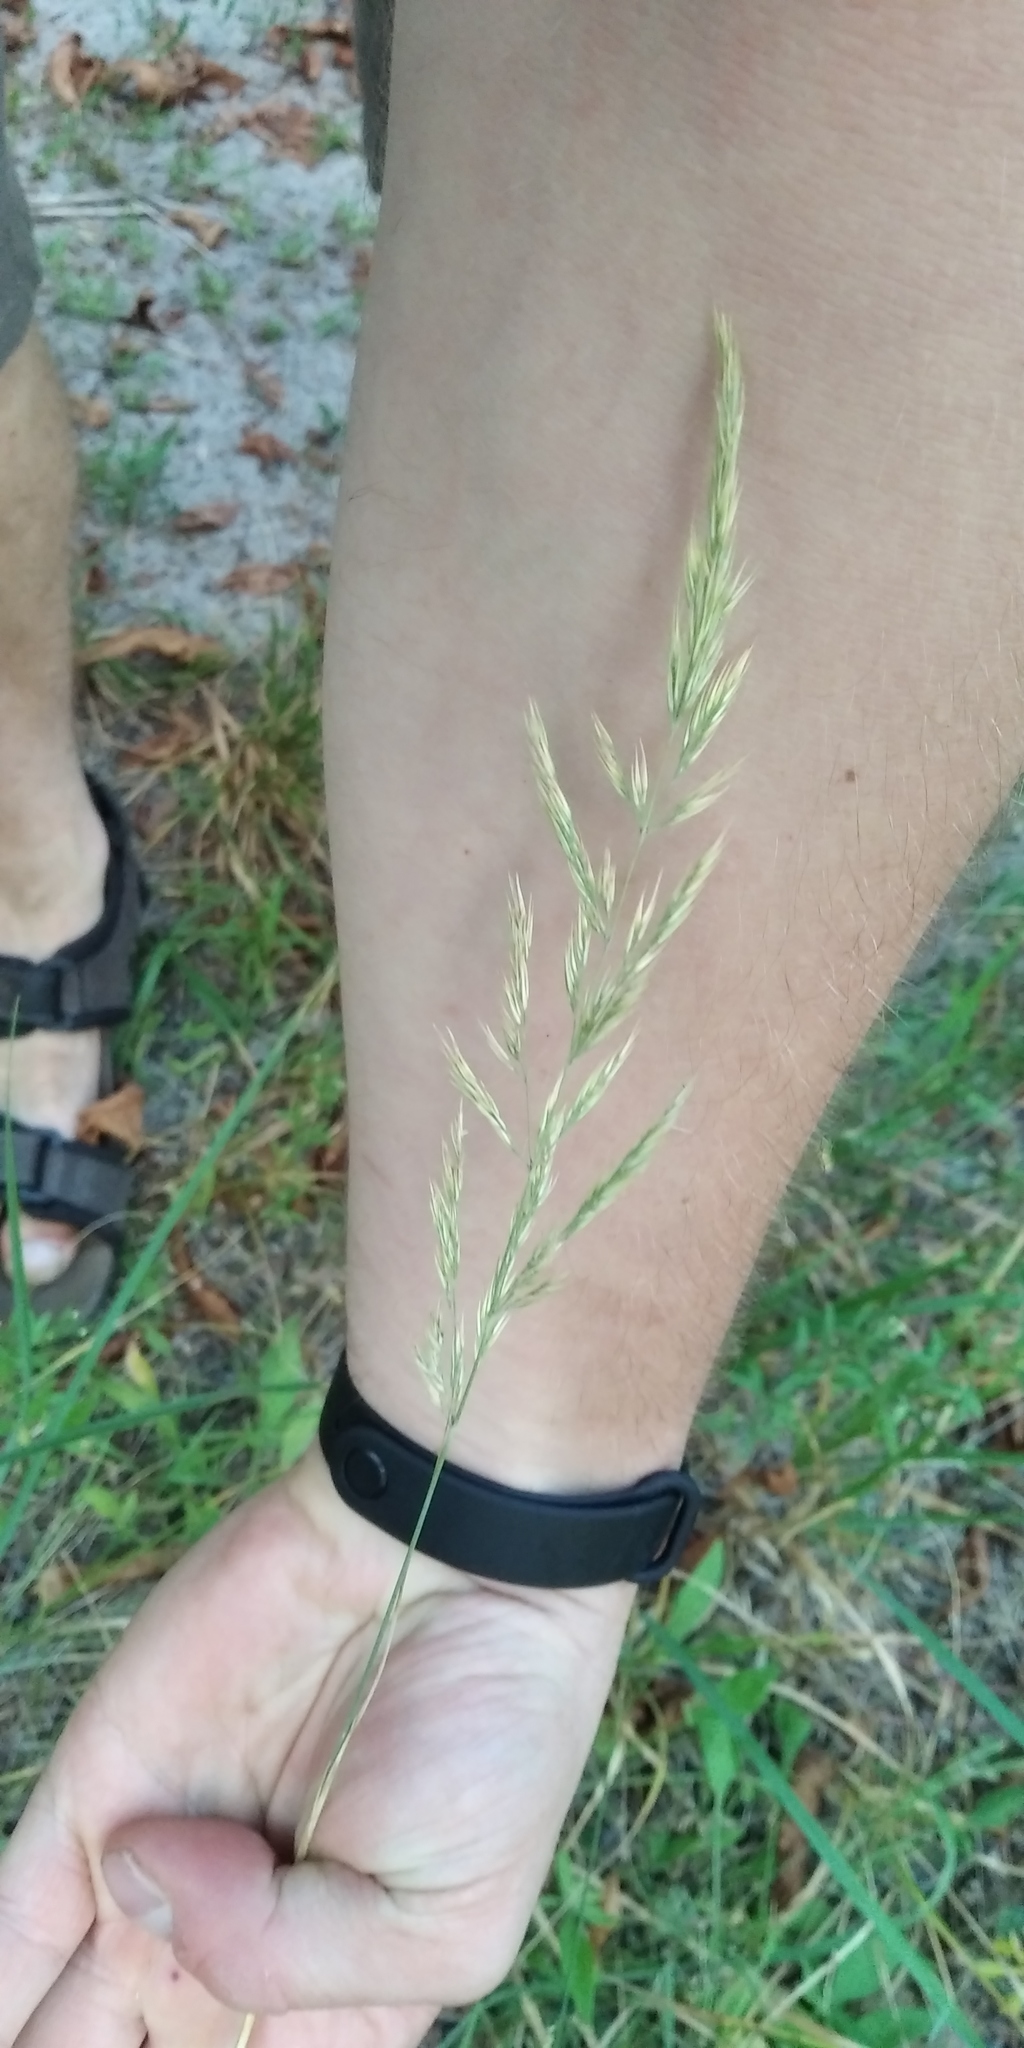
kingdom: Plantae
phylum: Tracheophyta
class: Liliopsida
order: Poales
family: Poaceae
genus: Calamagrostis
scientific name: Calamagrostis epigejos
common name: Wood small-reed
